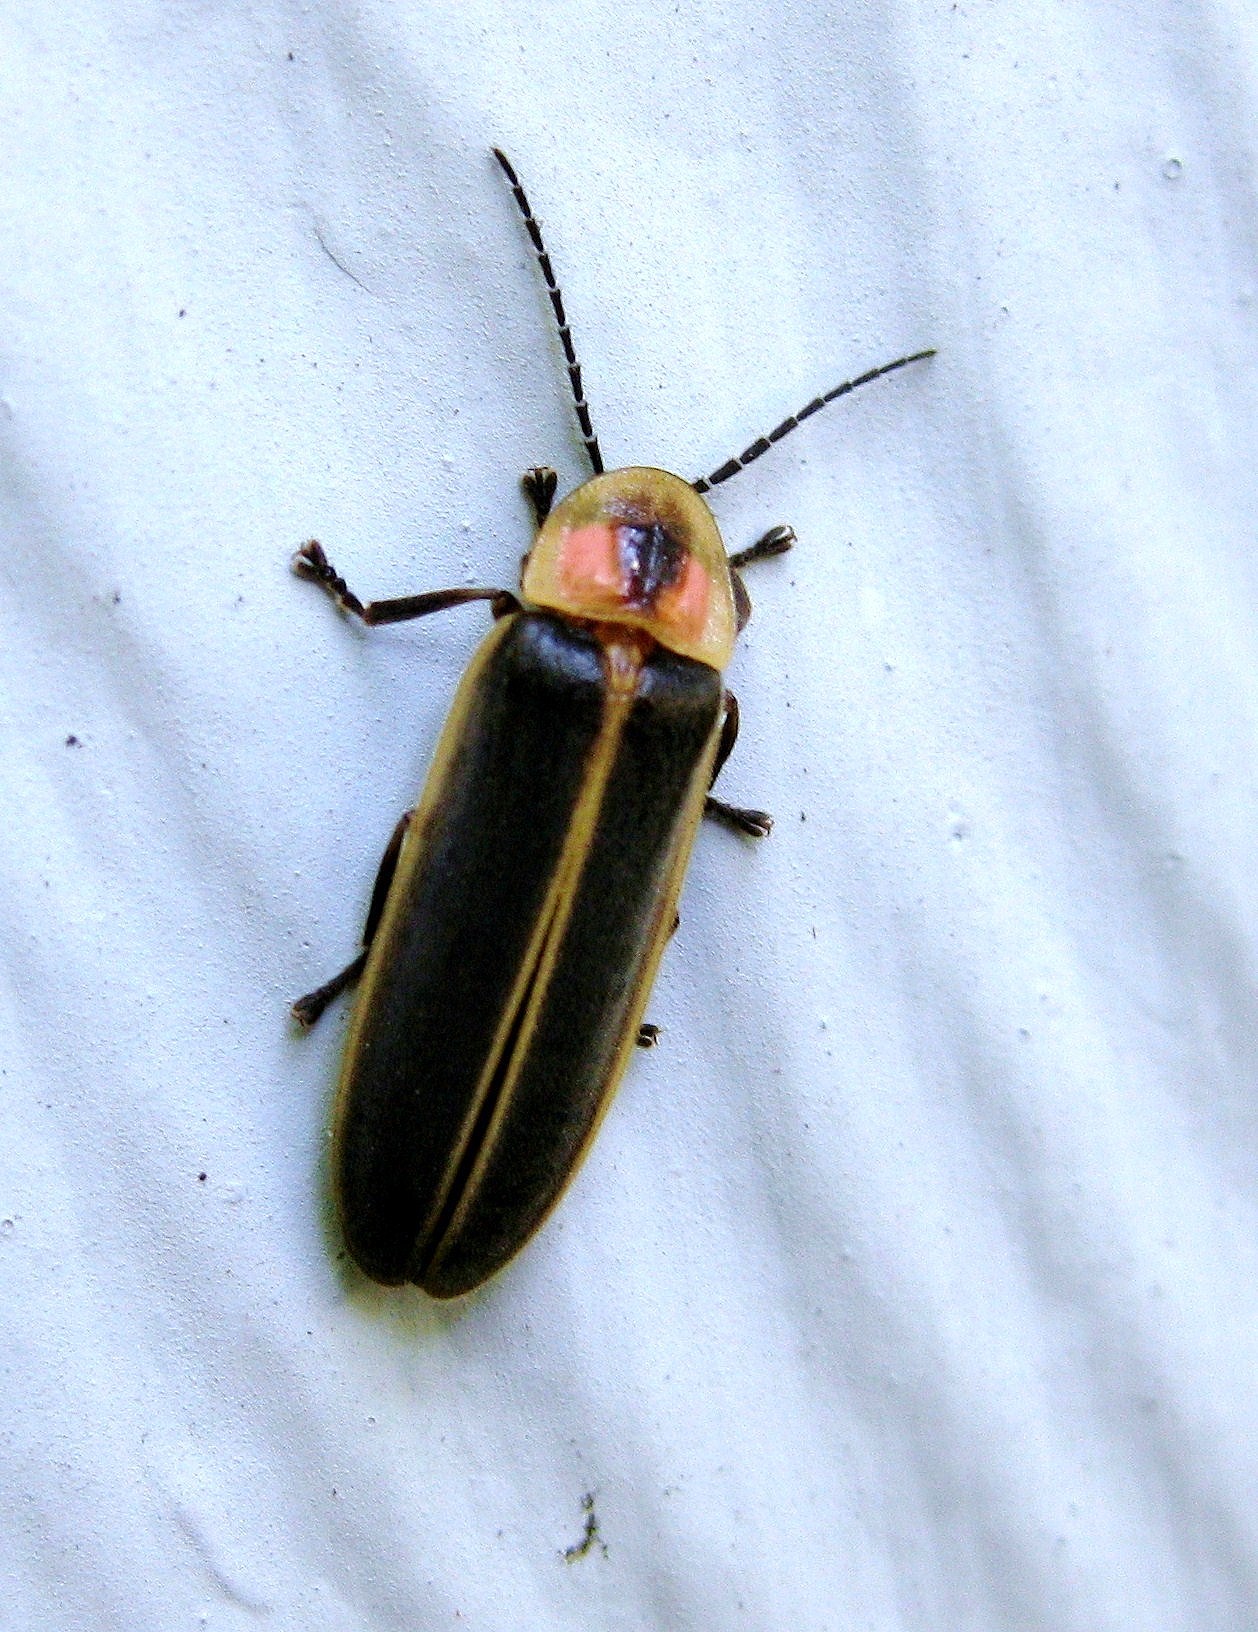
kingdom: Animalia
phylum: Arthropoda
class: Insecta
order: Coleoptera
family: Lampyridae
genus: Photinus
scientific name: Photinus pyralis
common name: Big dipper firefly
